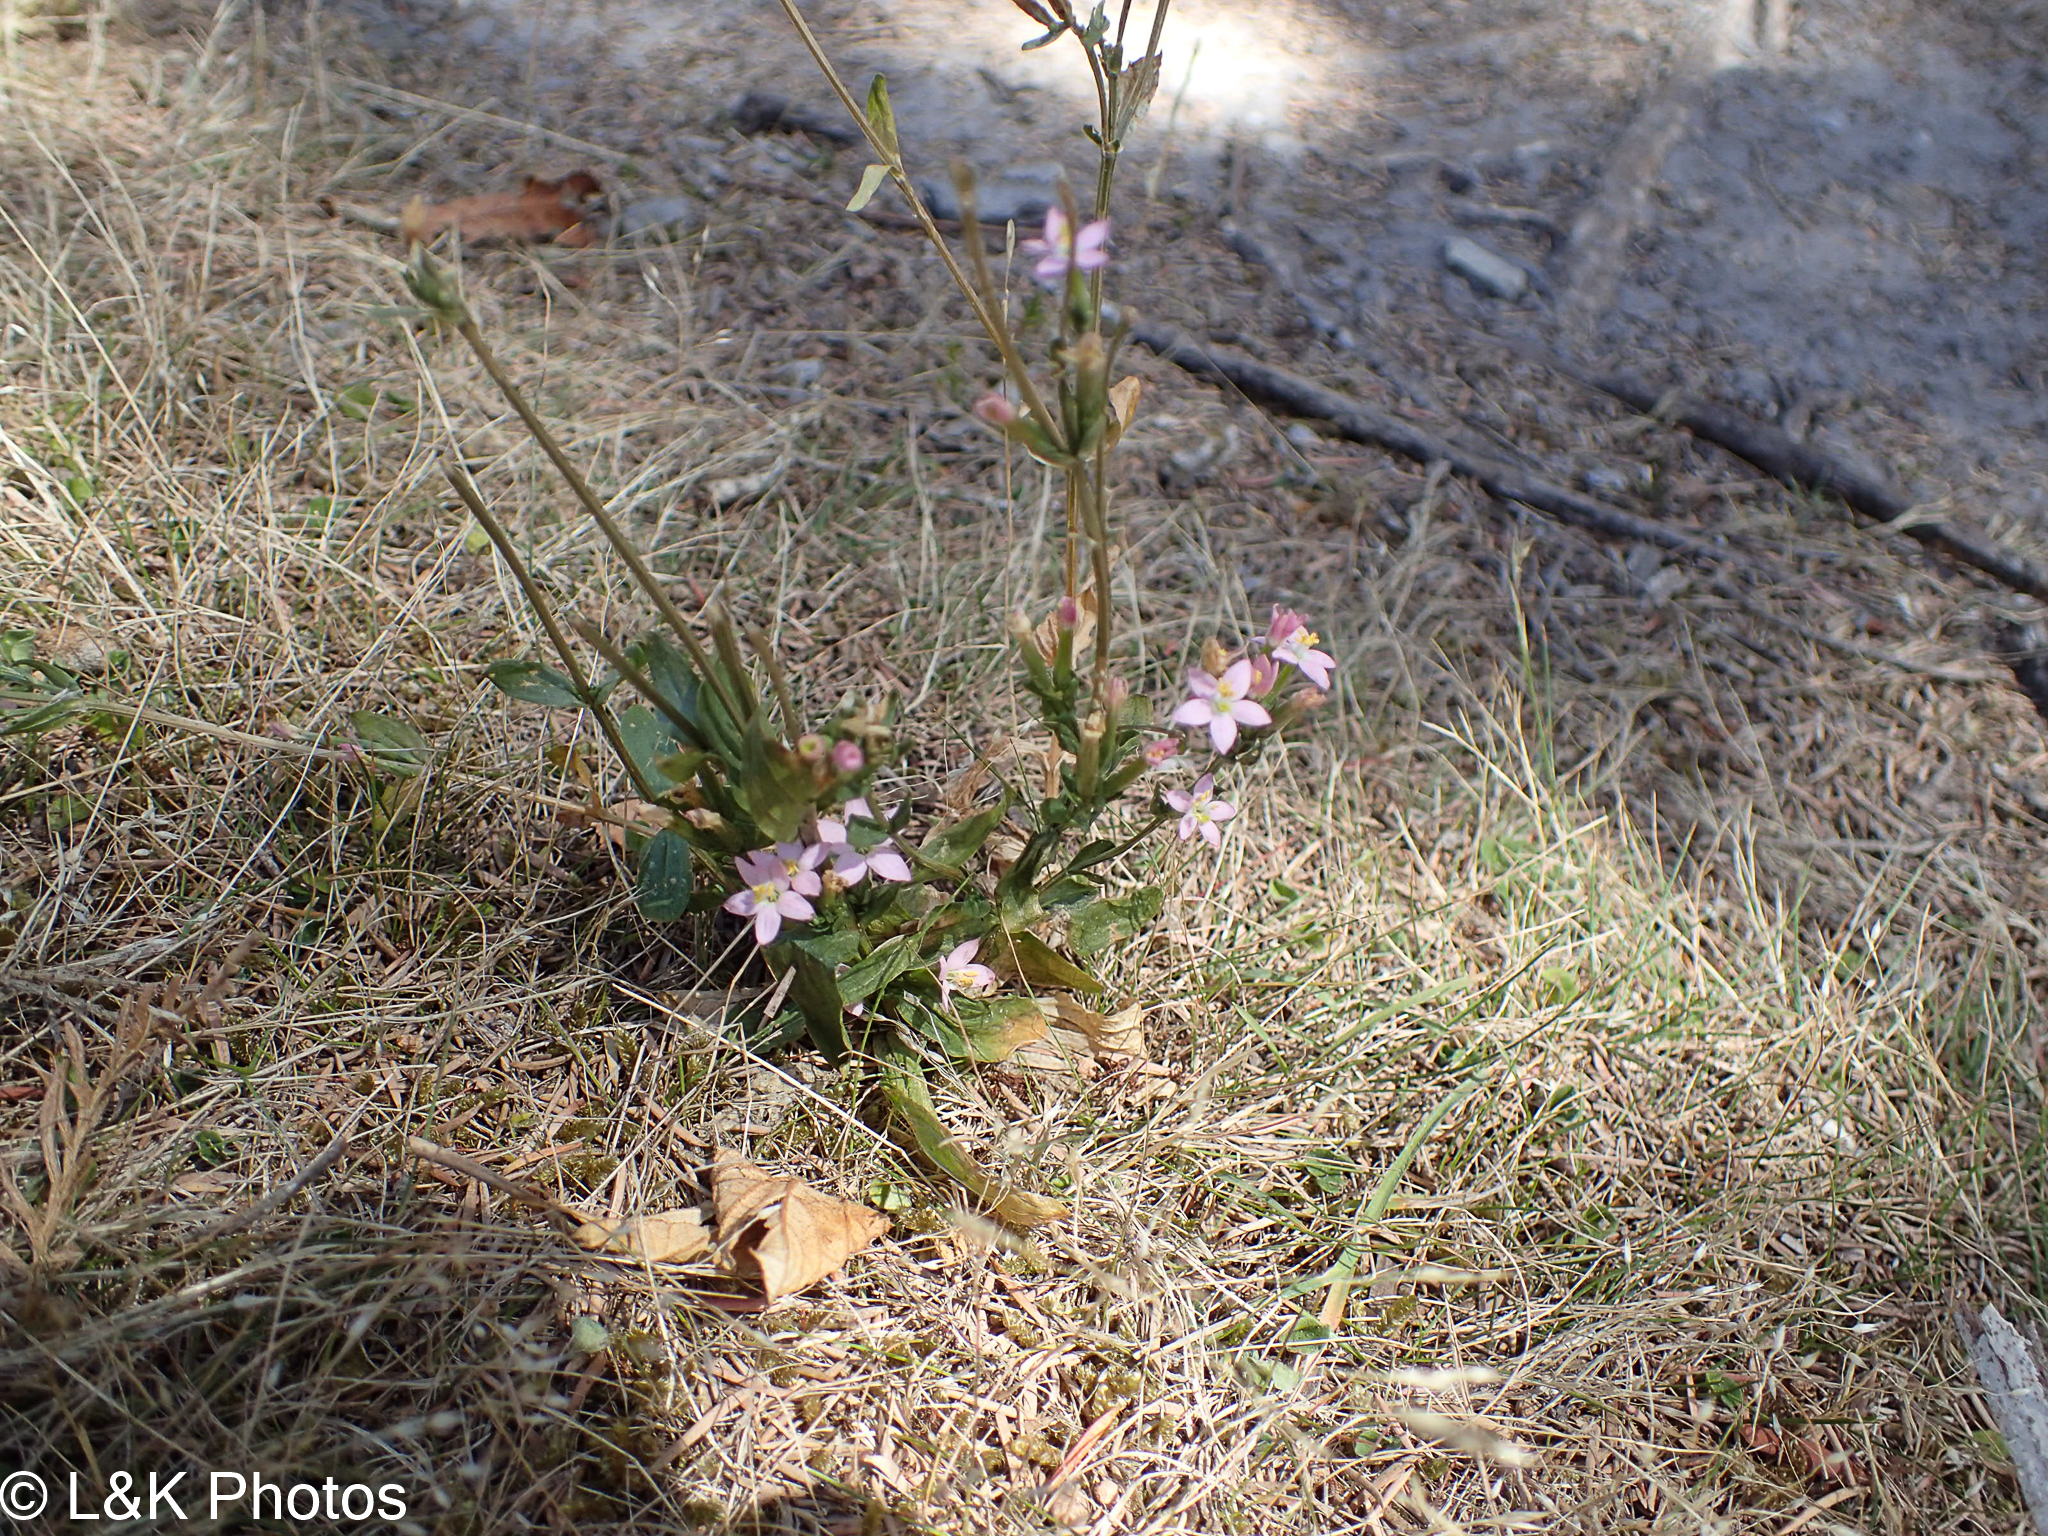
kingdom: Plantae
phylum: Tracheophyta
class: Magnoliopsida
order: Gentianales
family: Gentianaceae
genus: Centaurium
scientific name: Centaurium erythraea
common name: Common centaury
